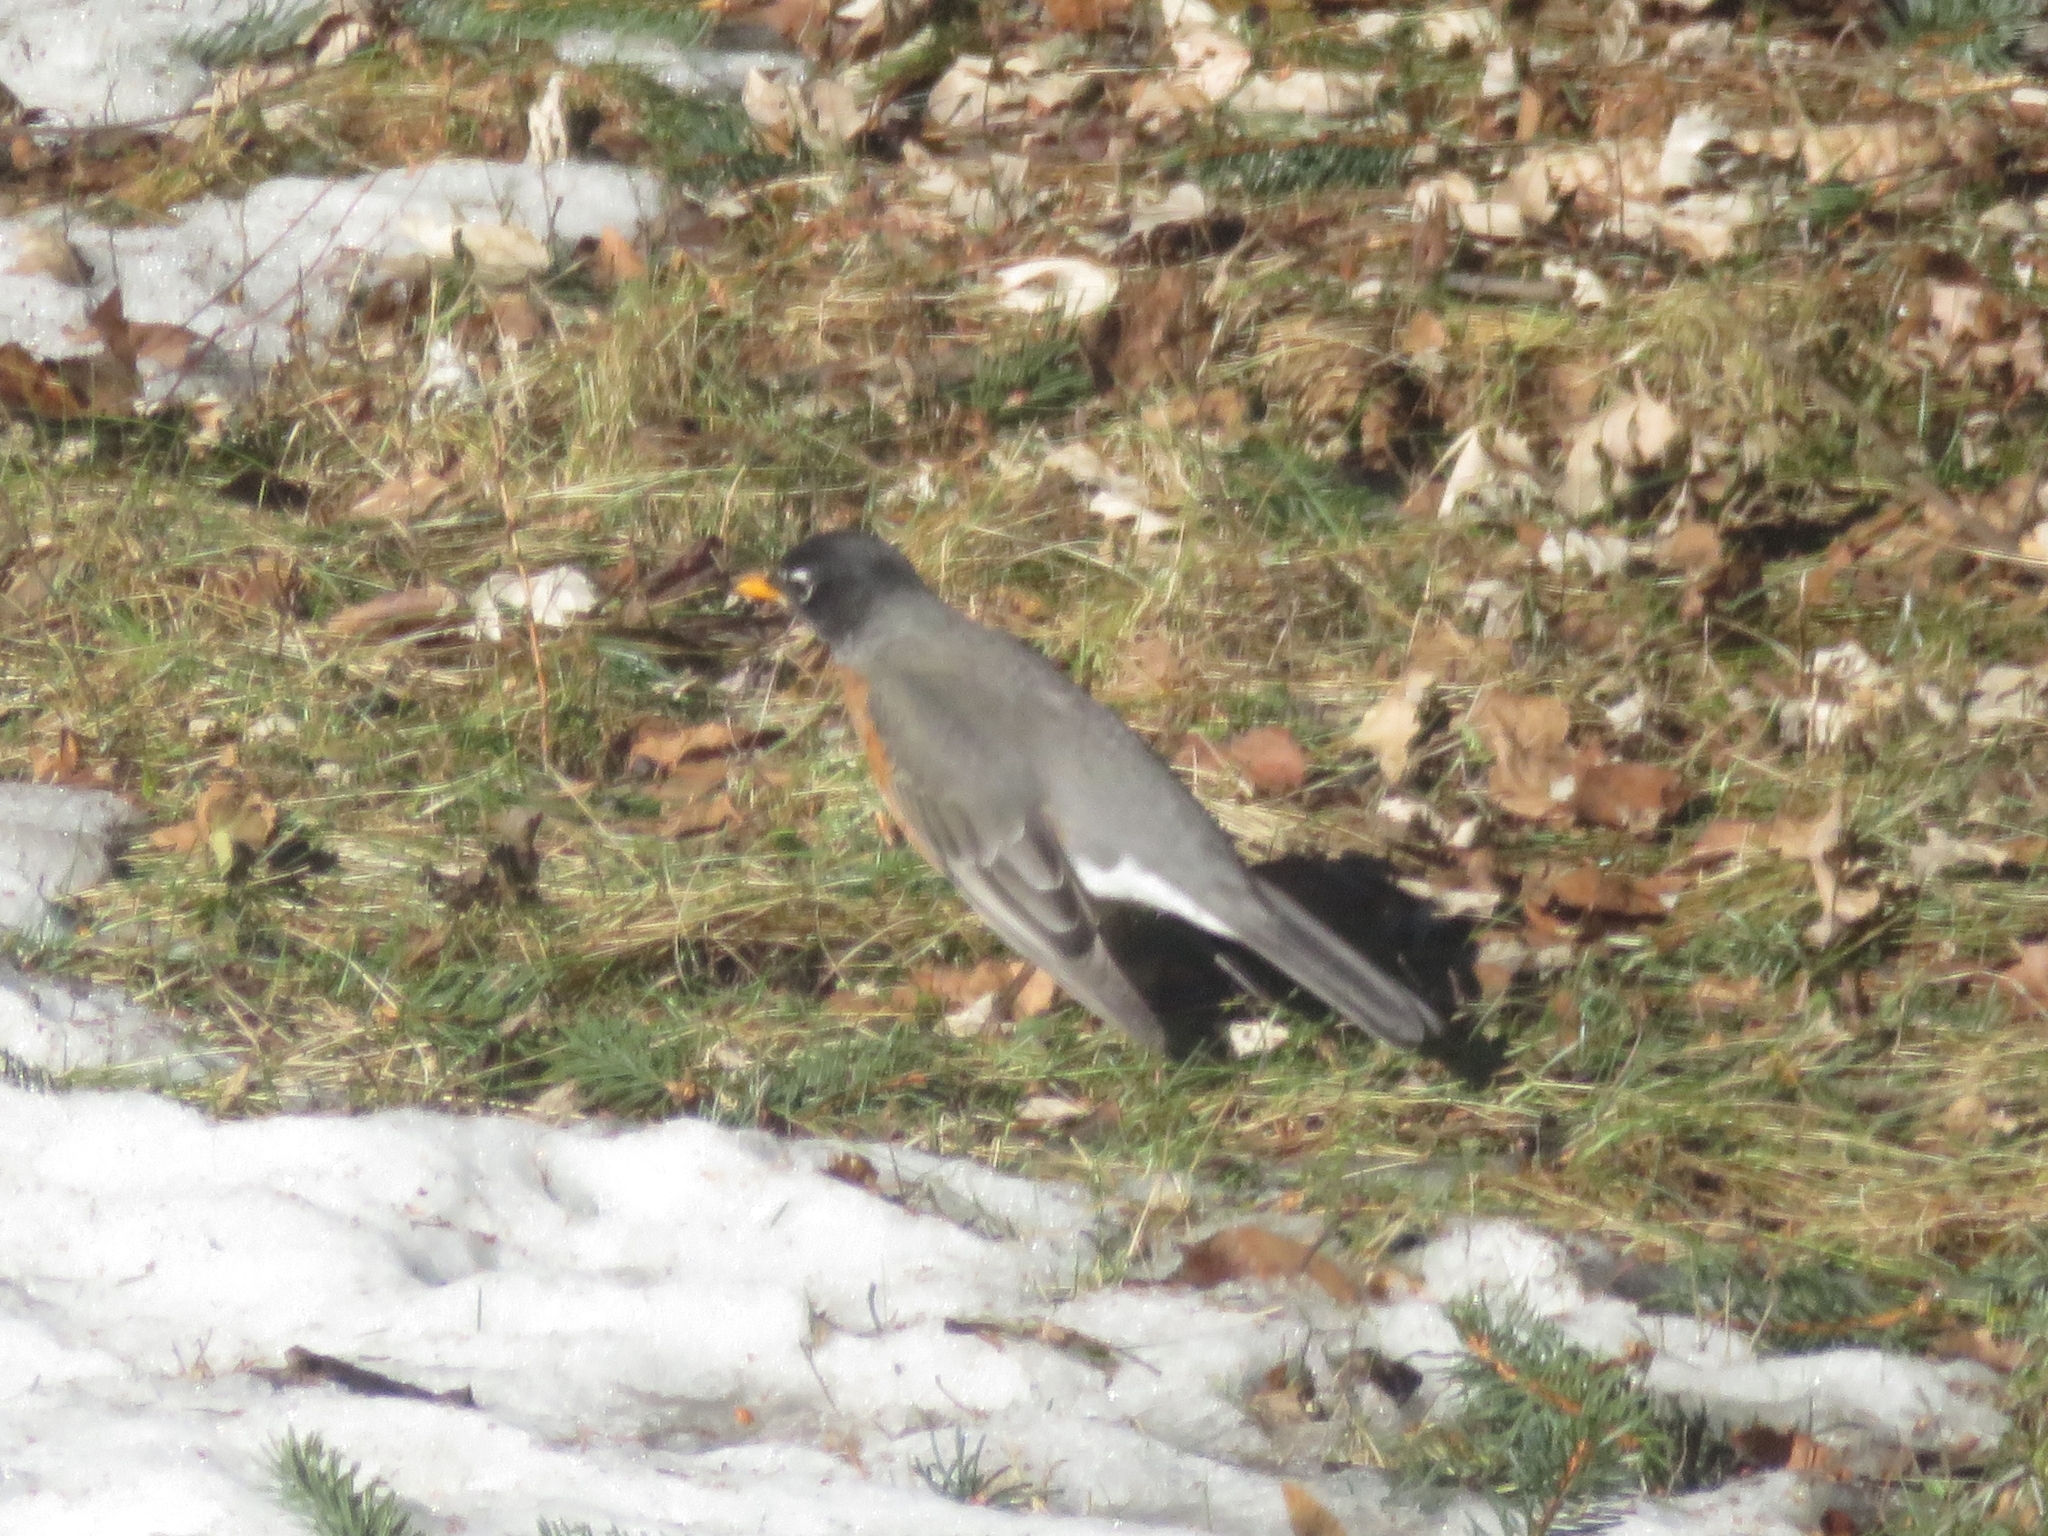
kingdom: Animalia
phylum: Chordata
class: Aves
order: Passeriformes
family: Turdidae
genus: Turdus
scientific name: Turdus migratorius
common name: American robin
